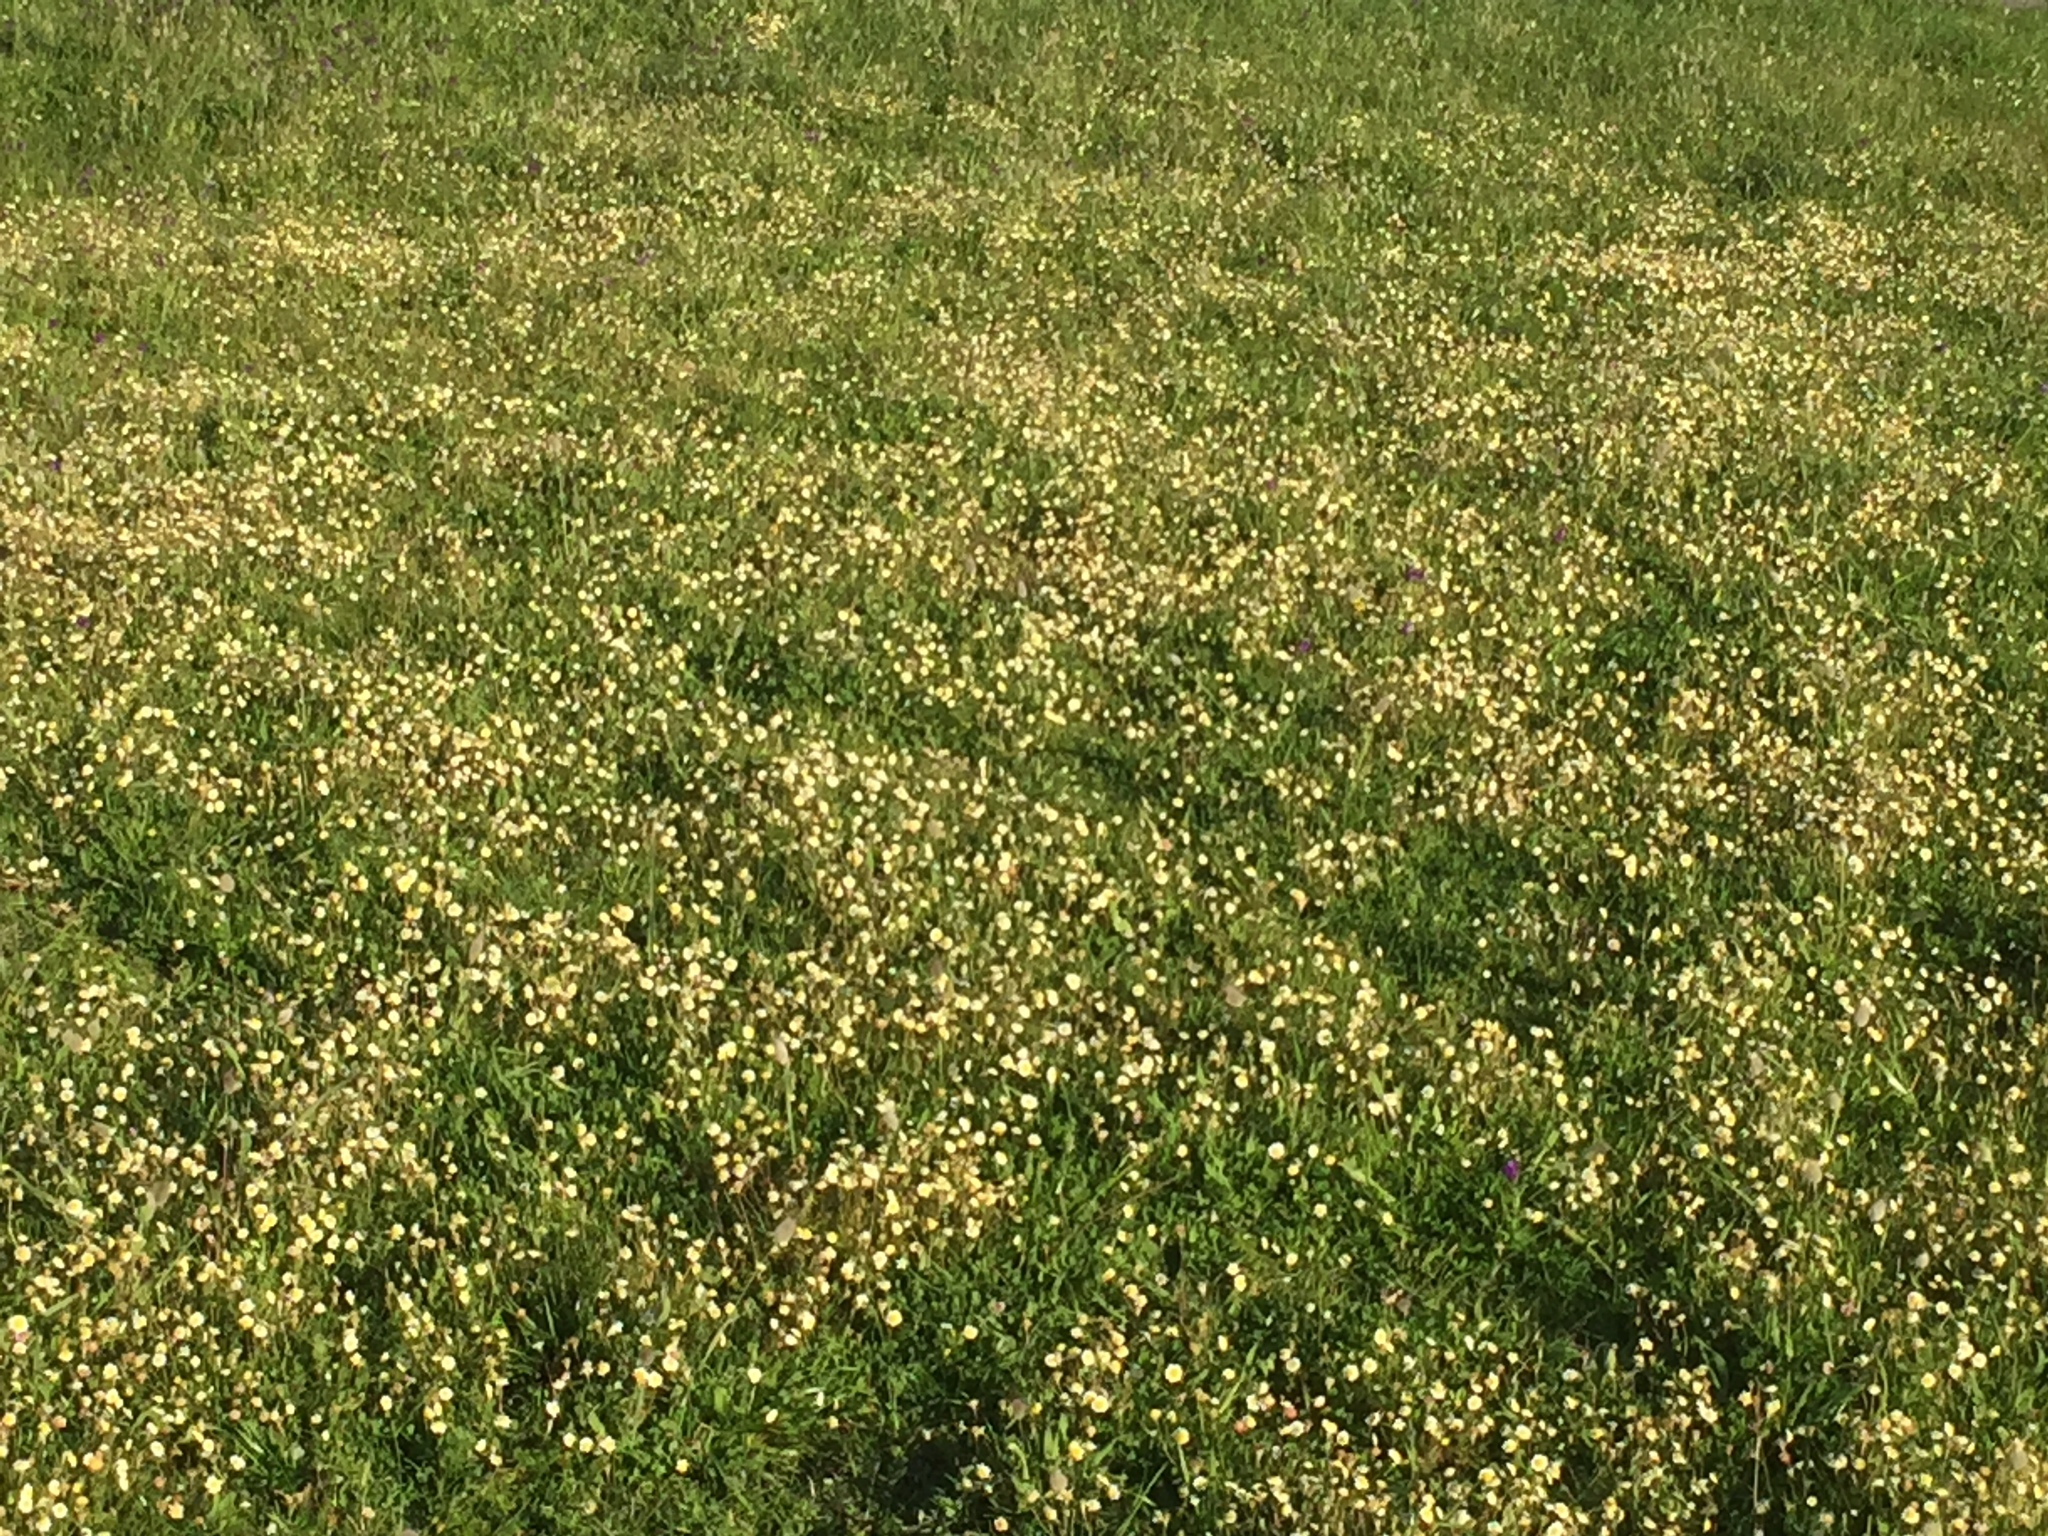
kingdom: Plantae
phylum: Tracheophyta
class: Liliopsida
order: Poales
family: Poaceae
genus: Lagurus
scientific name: Lagurus ovatus
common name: Hare's-tail
